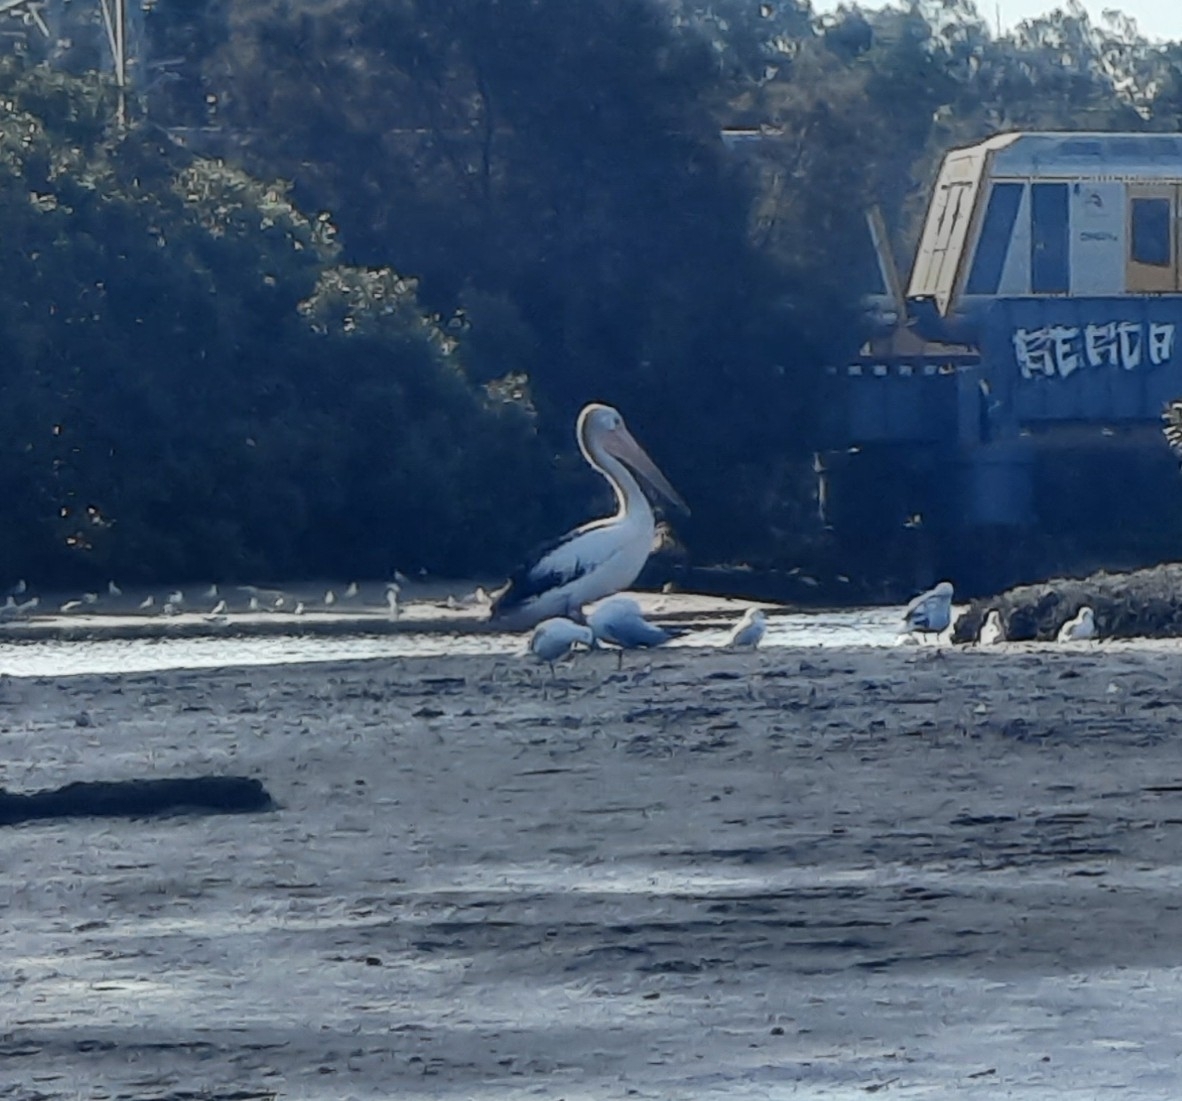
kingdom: Animalia
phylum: Chordata
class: Aves
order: Pelecaniformes
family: Pelecanidae
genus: Pelecanus
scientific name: Pelecanus conspicillatus
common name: Australian pelican
